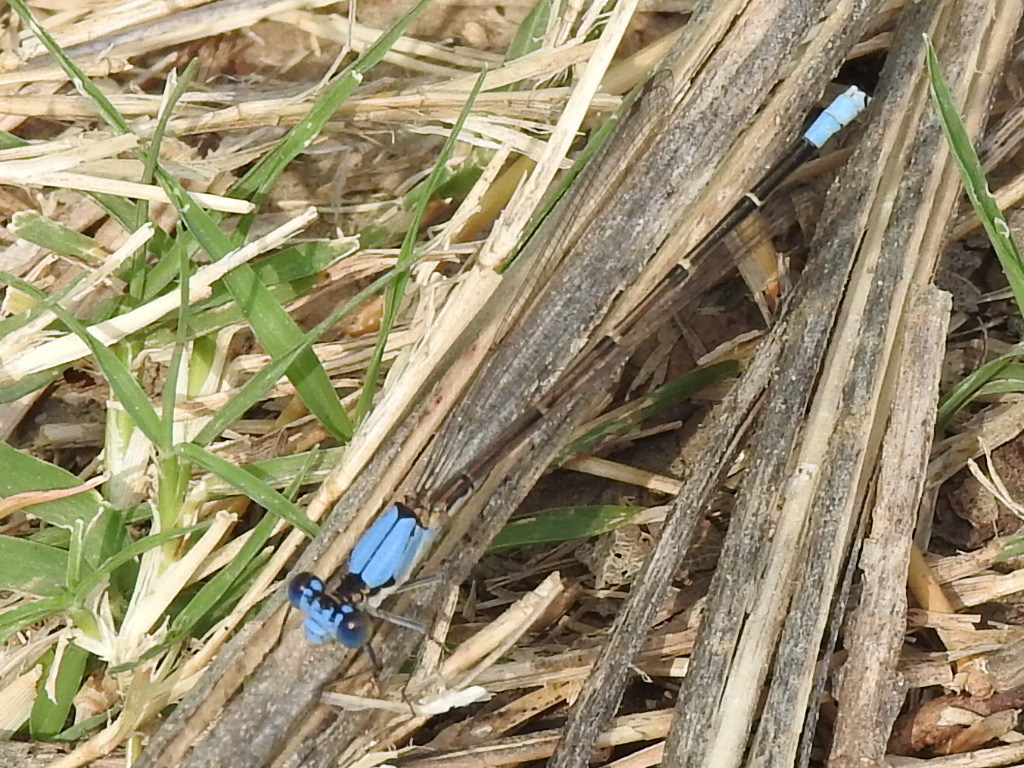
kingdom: Animalia
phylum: Arthropoda
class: Insecta
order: Odonata
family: Coenagrionidae
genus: Argia
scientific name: Argia apicalis
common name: Blue-fronted dancer
